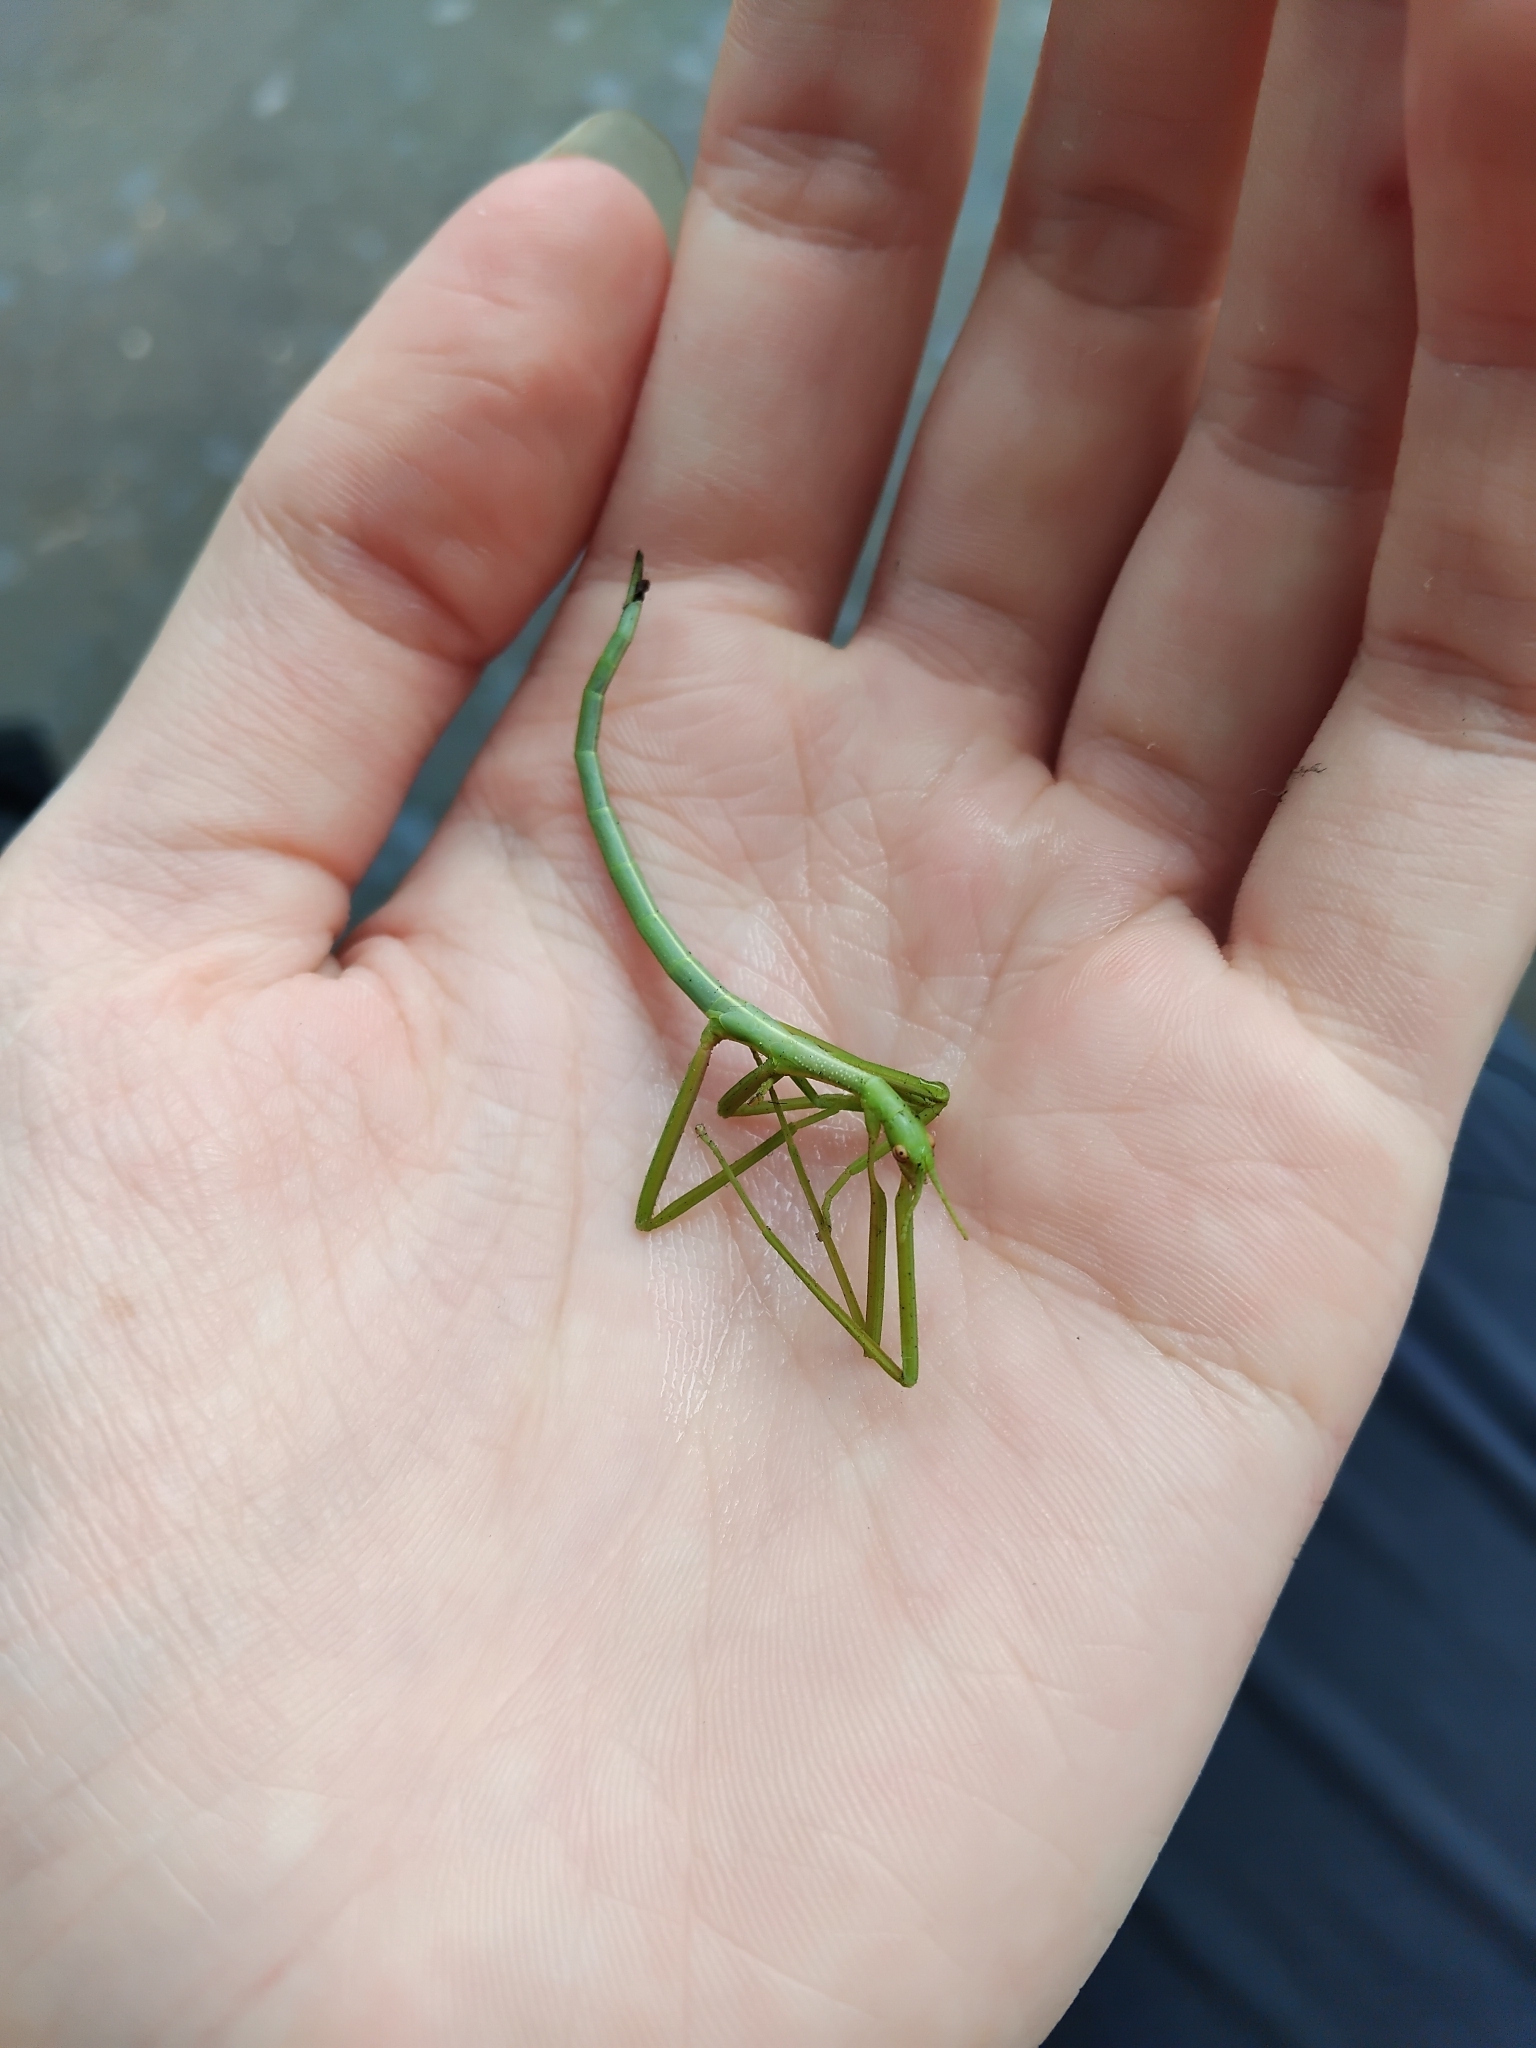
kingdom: Animalia
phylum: Arthropoda
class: Insecta
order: Phasmida
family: Phasmatidae
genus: Didymuria
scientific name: Didymuria violescens
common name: Spur-legged stick-insect
